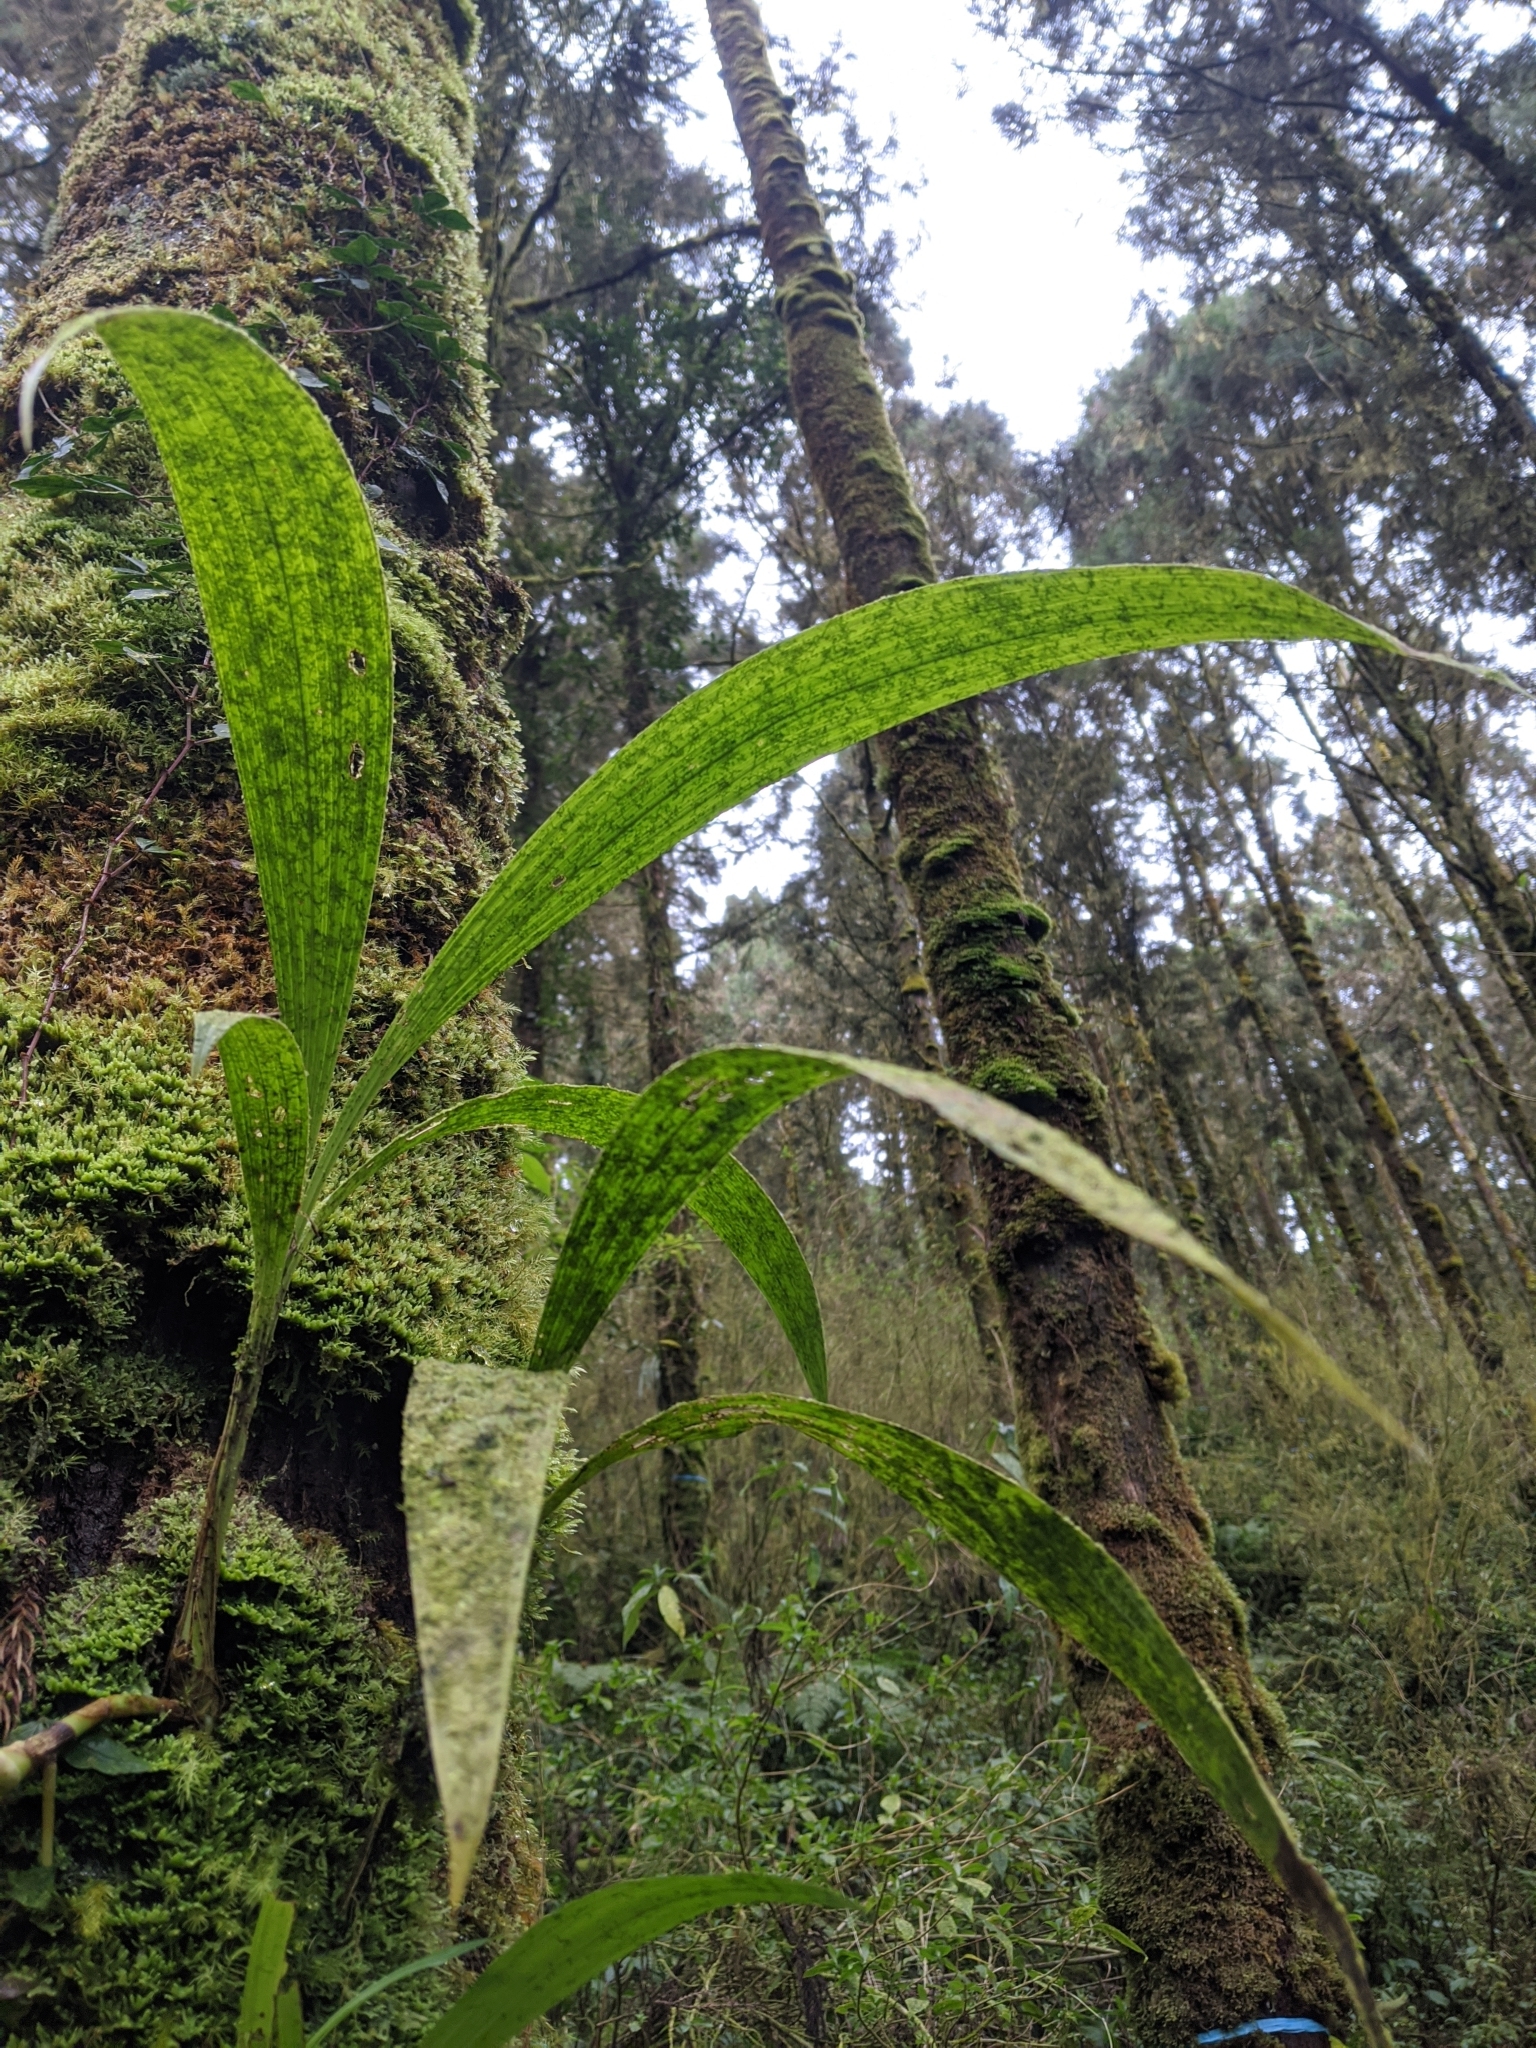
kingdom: Plantae
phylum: Tracheophyta
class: Liliopsida
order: Asparagales
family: Orchidaceae
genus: Calanthe
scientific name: Calanthe densiflora
